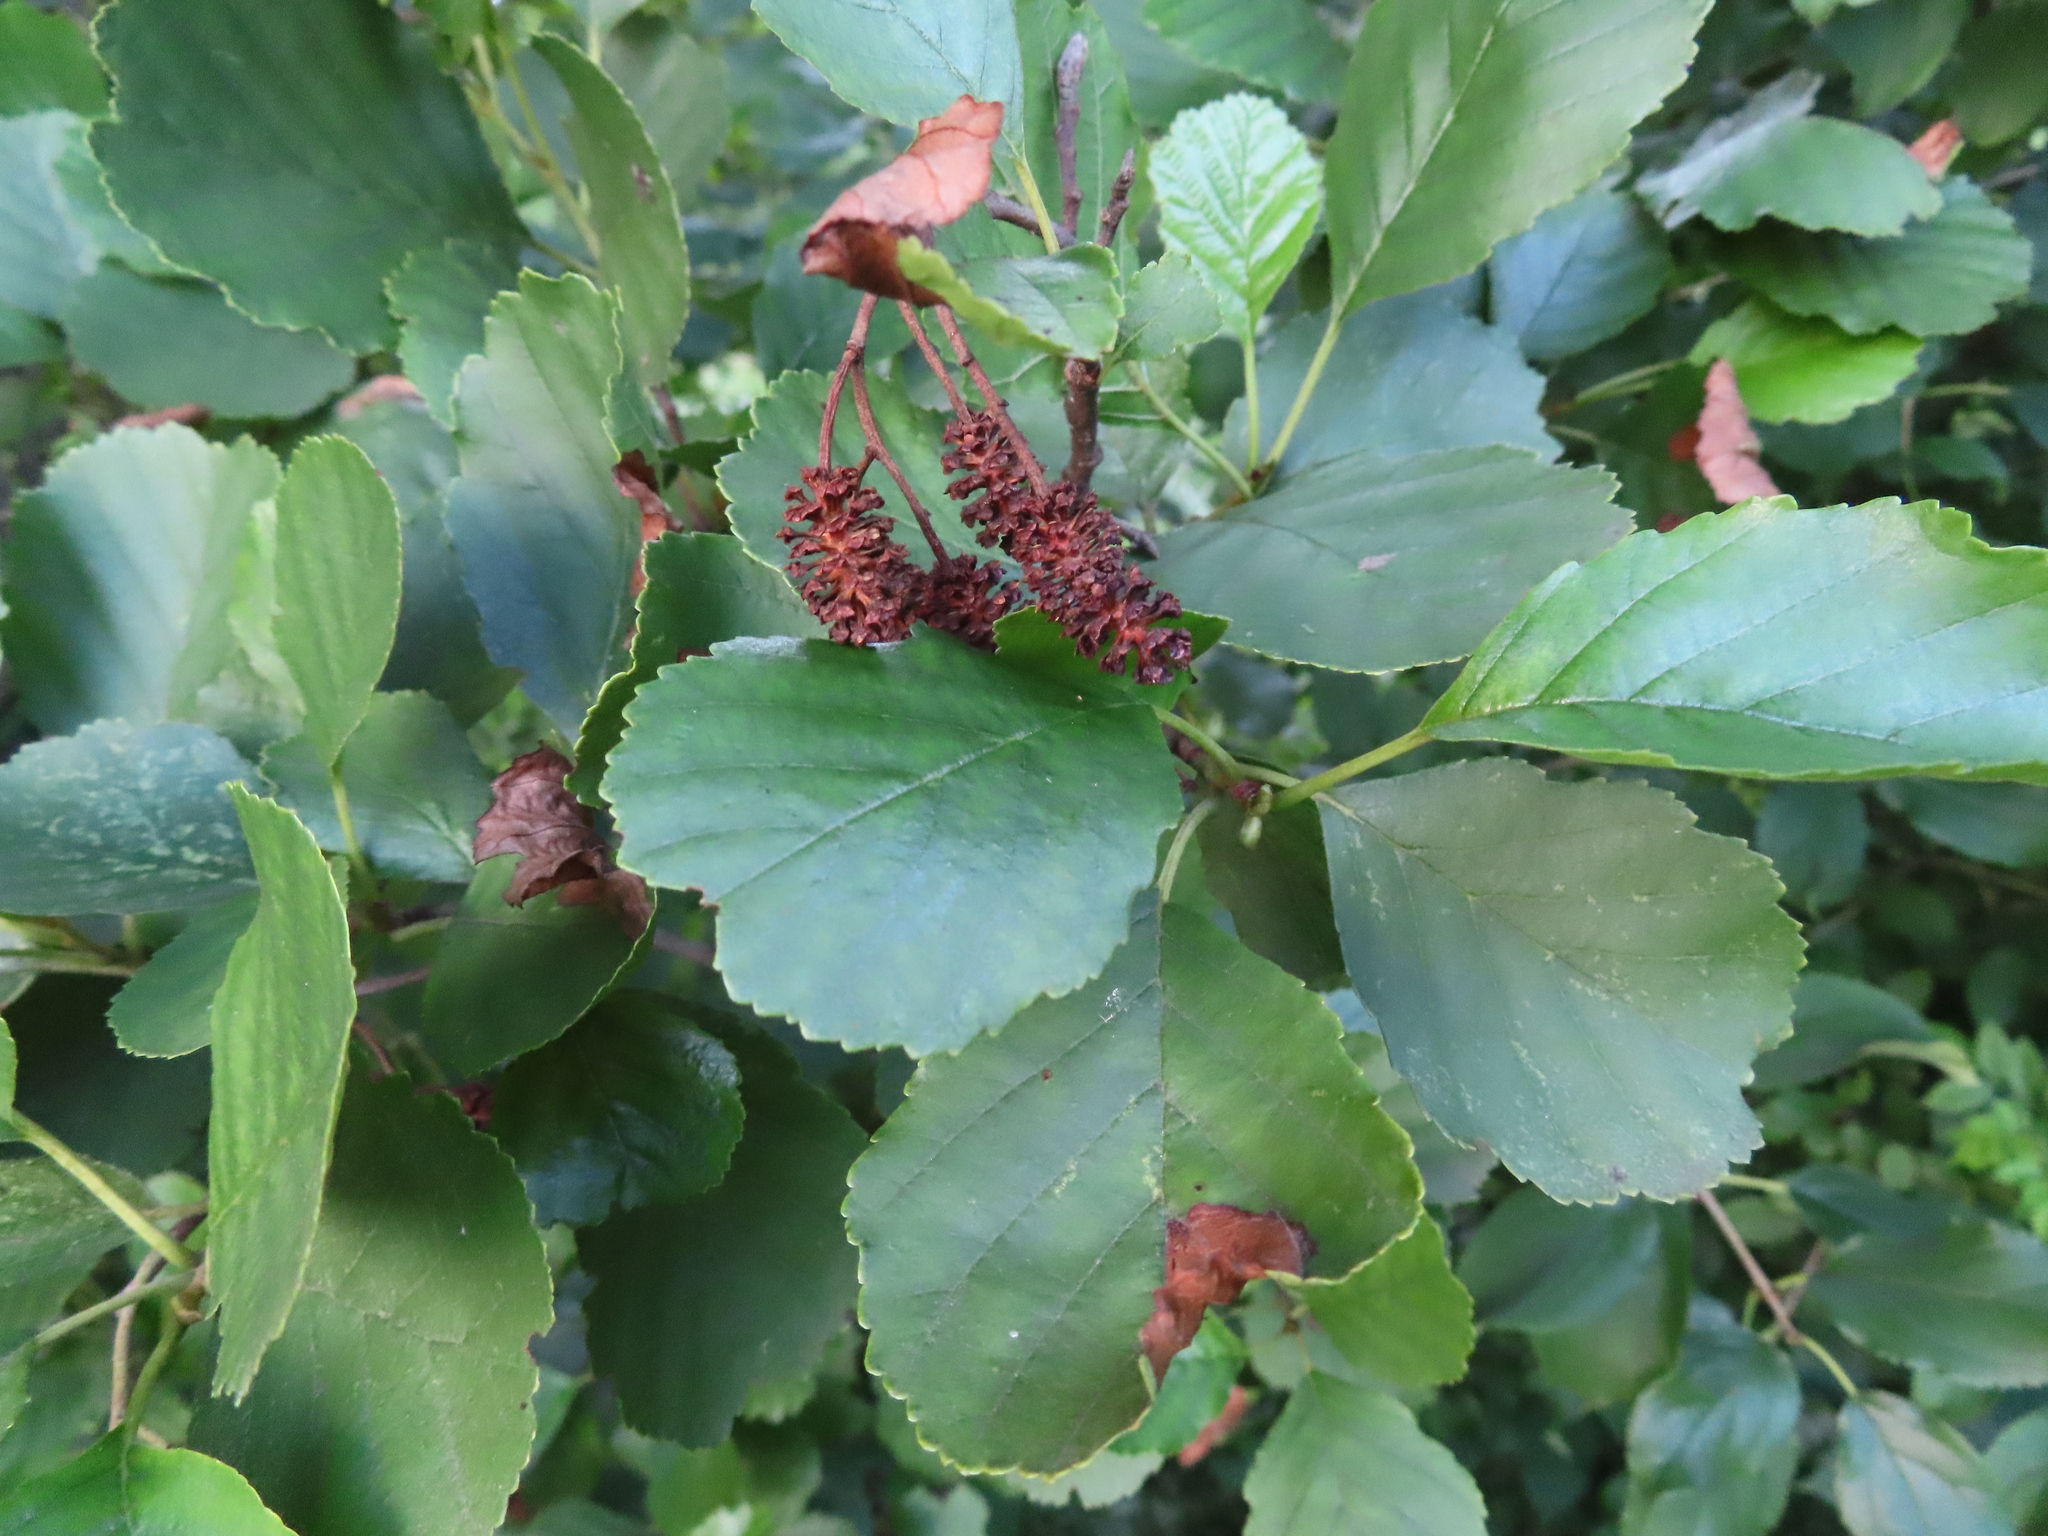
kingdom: Plantae
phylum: Tracheophyta
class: Magnoliopsida
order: Fagales
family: Betulaceae
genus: Alnus
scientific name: Alnus glutinosa
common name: Black alder
